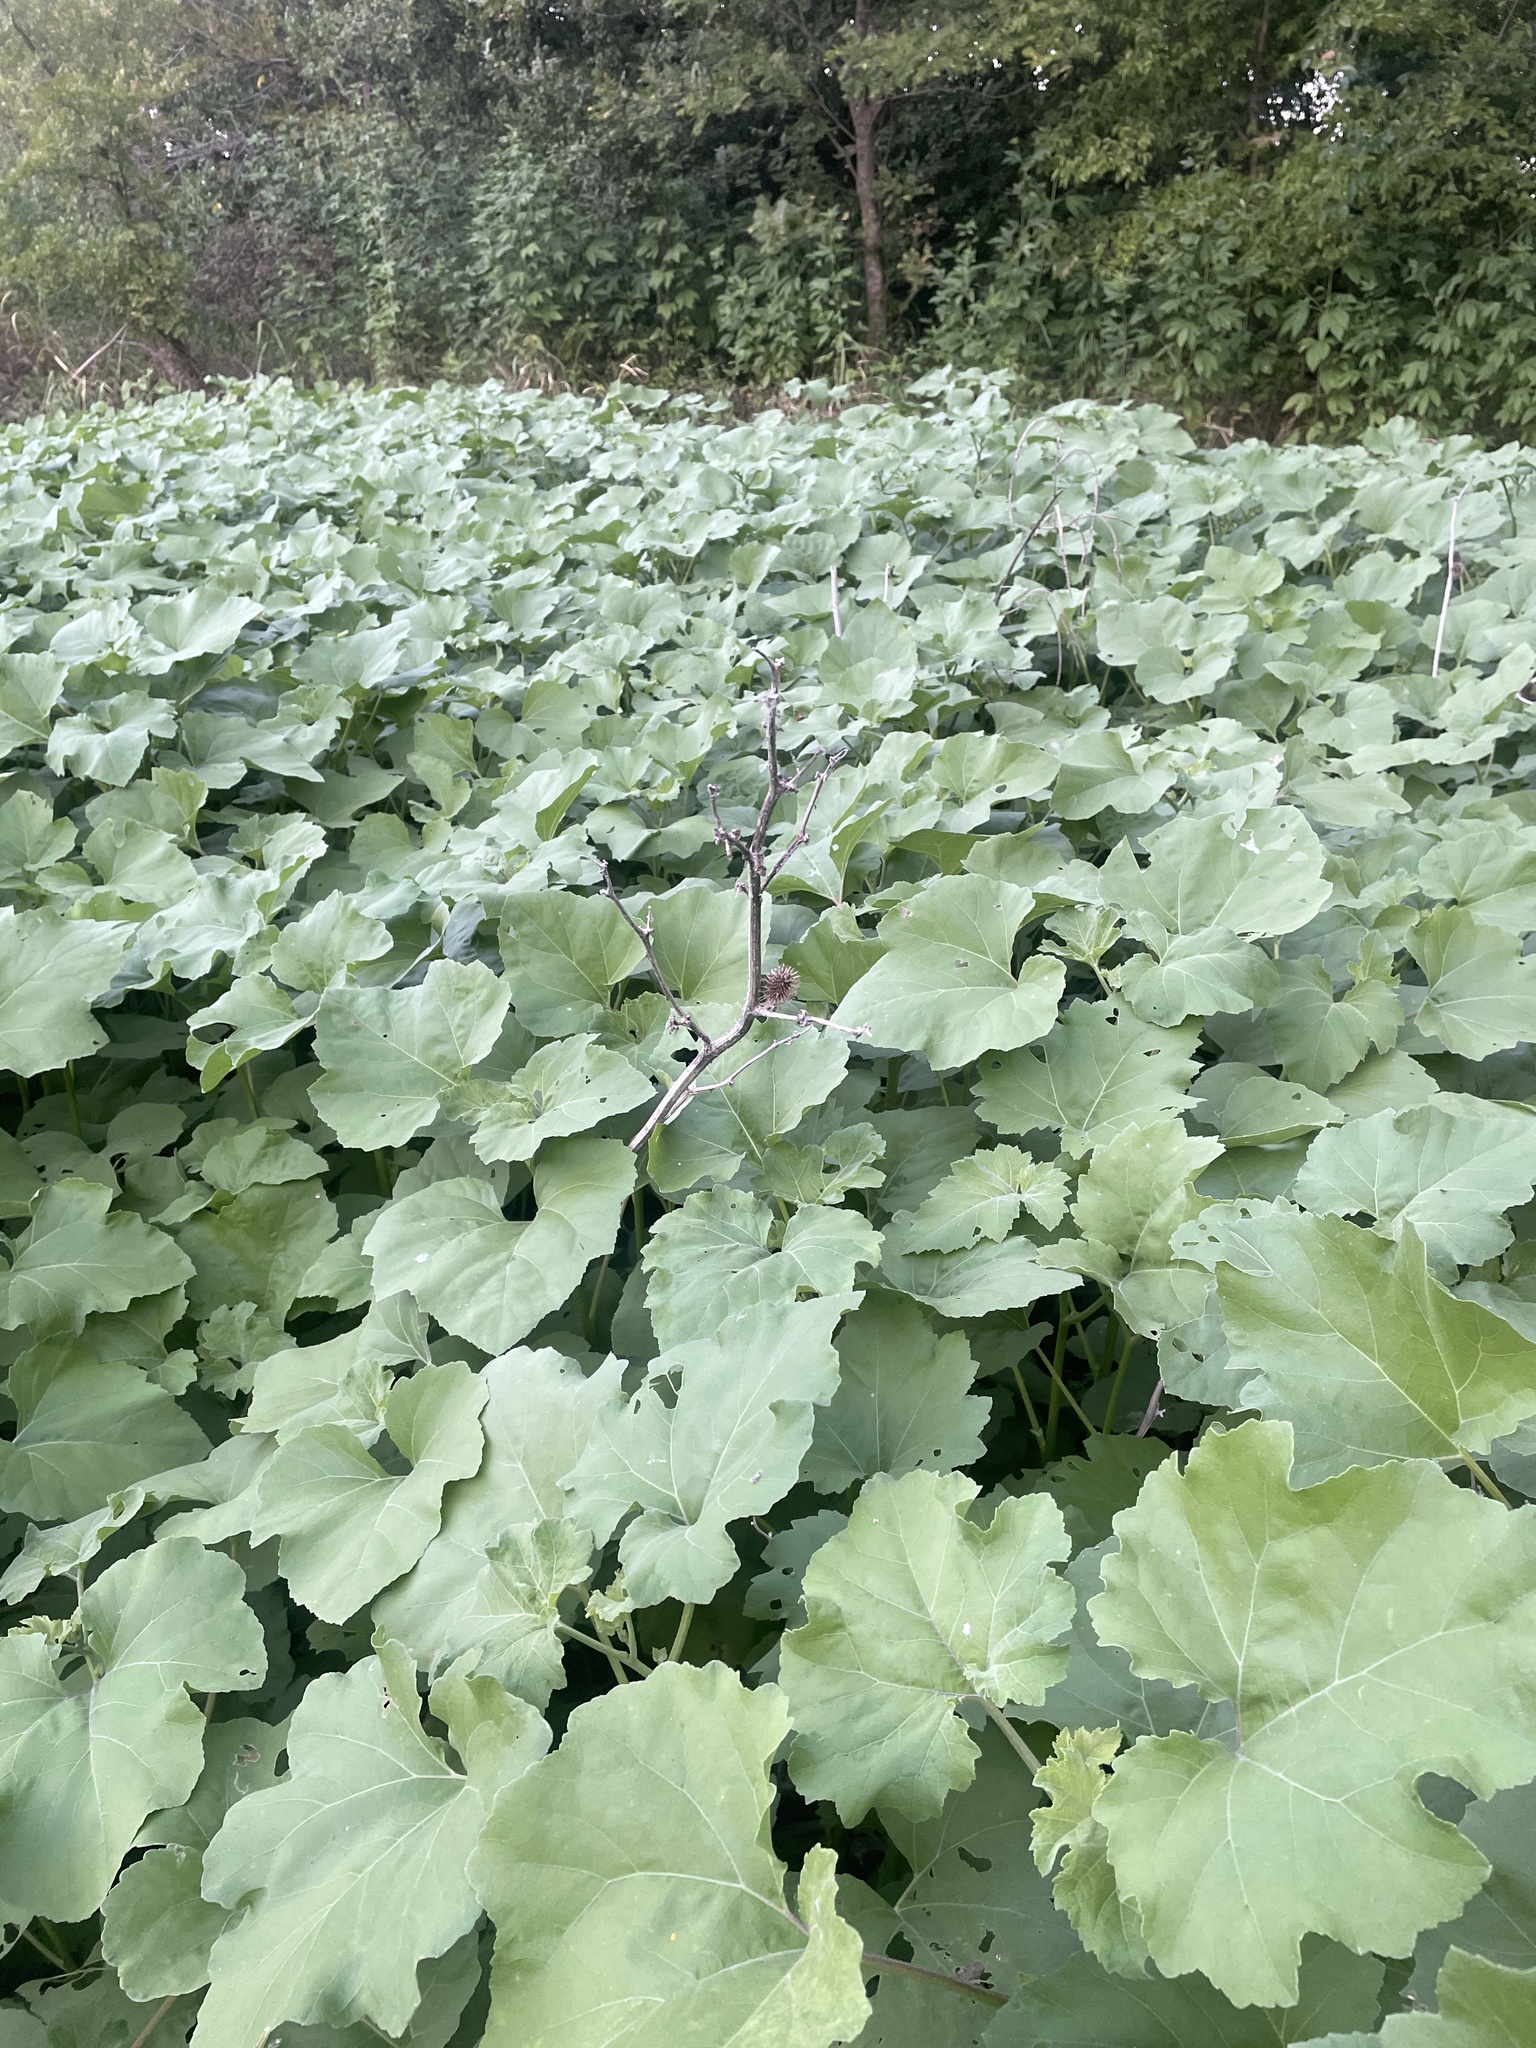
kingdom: Plantae
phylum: Tracheophyta
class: Magnoliopsida
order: Asterales
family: Asteraceae
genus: Xanthium
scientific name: Xanthium strumarium
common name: Rough cocklebur
